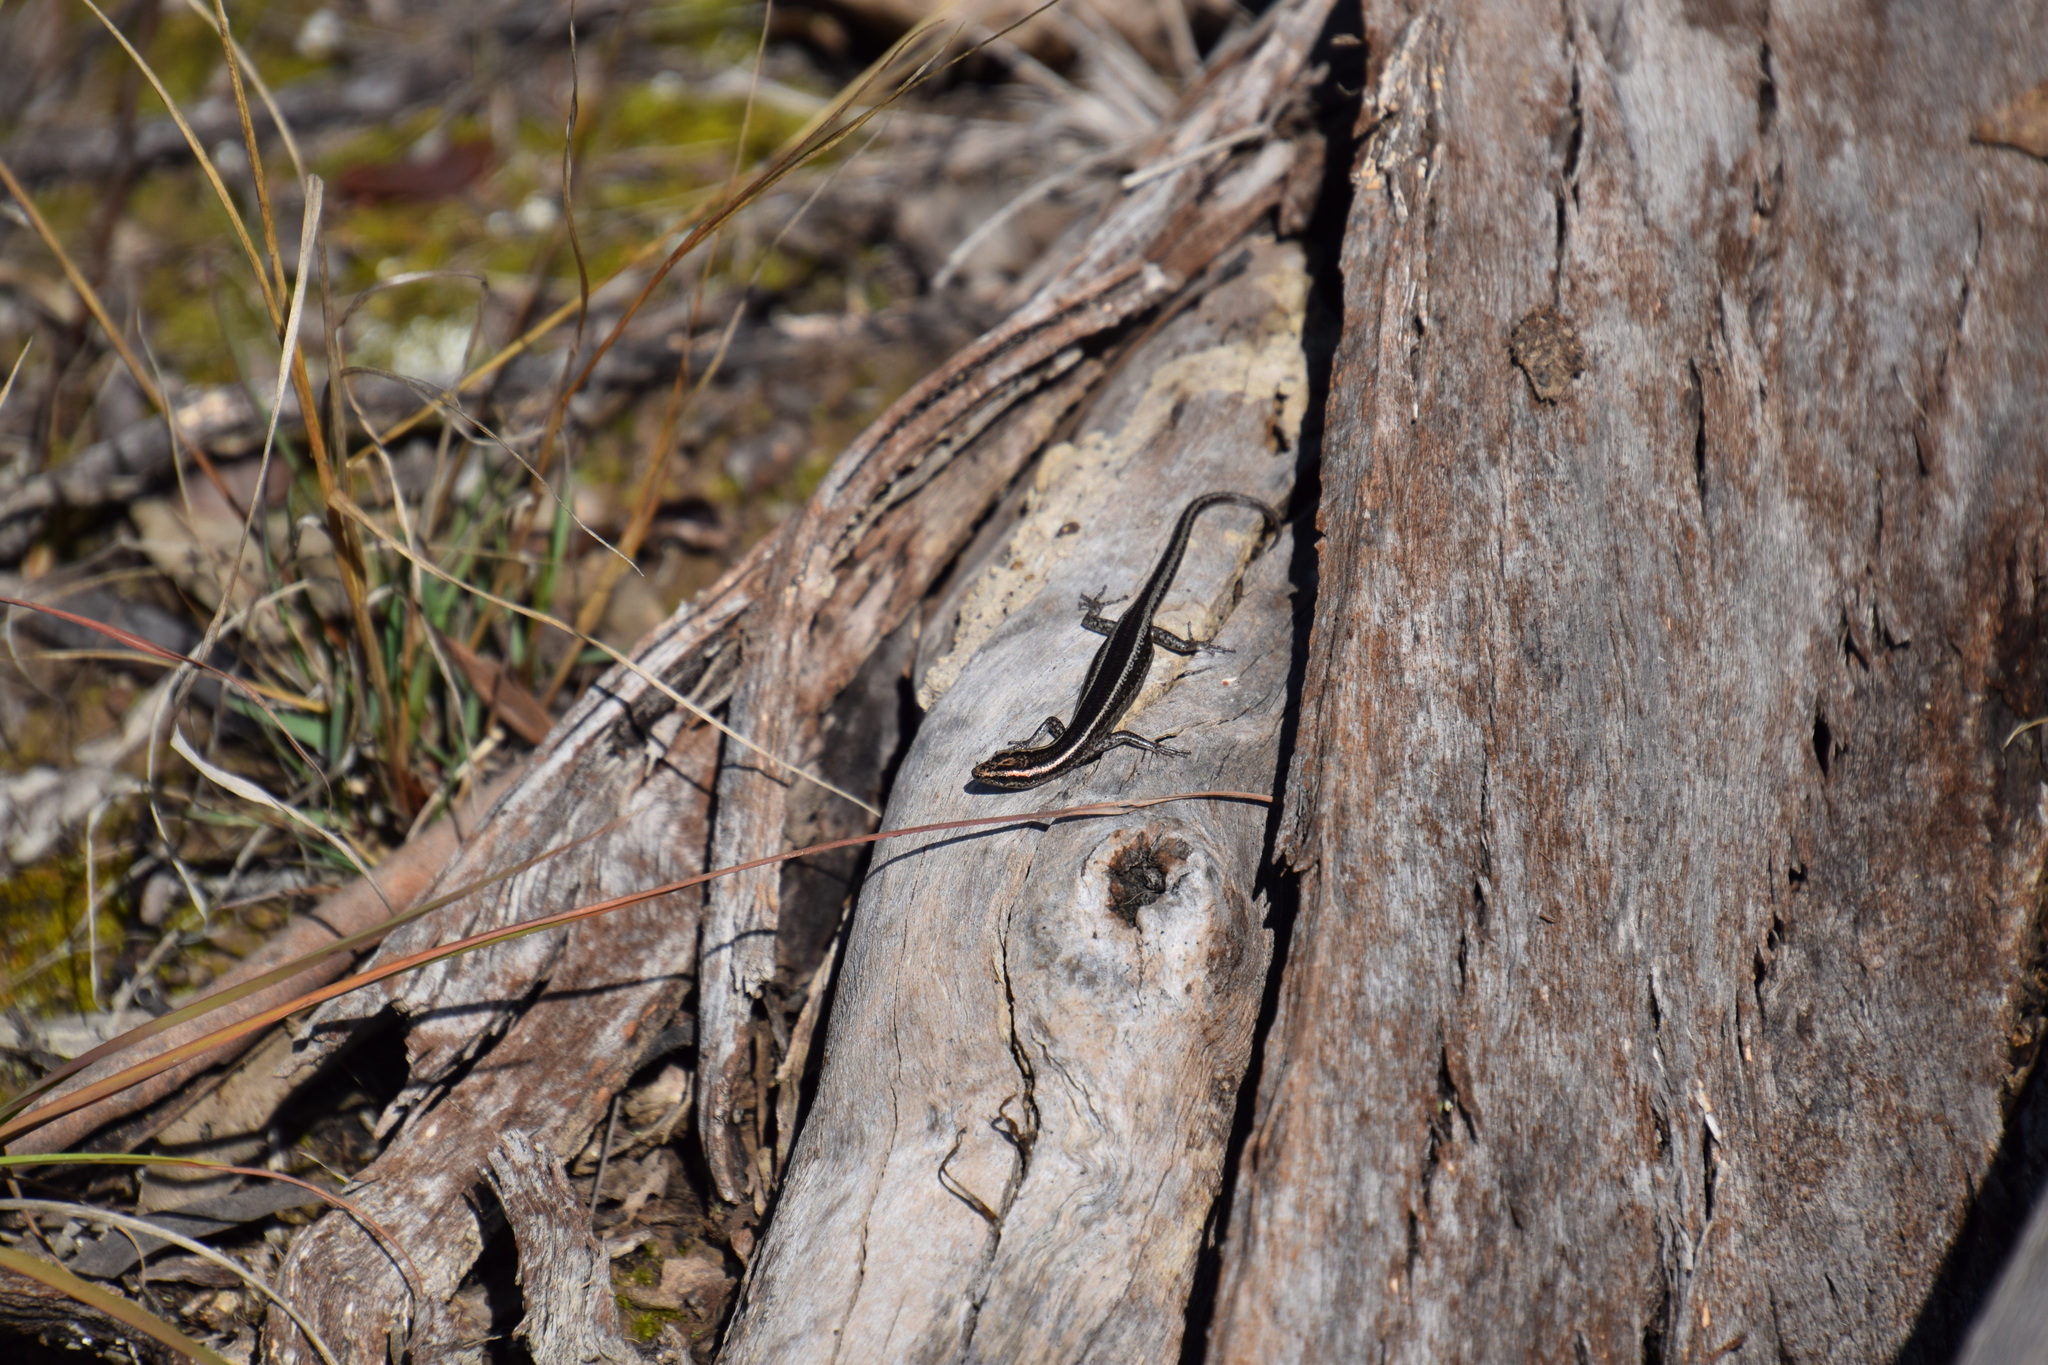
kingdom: Animalia
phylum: Chordata
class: Squamata
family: Scincidae
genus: Cryptoblepharus
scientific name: Cryptoblepharus pulcher
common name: Elegant snake-eyed skink
